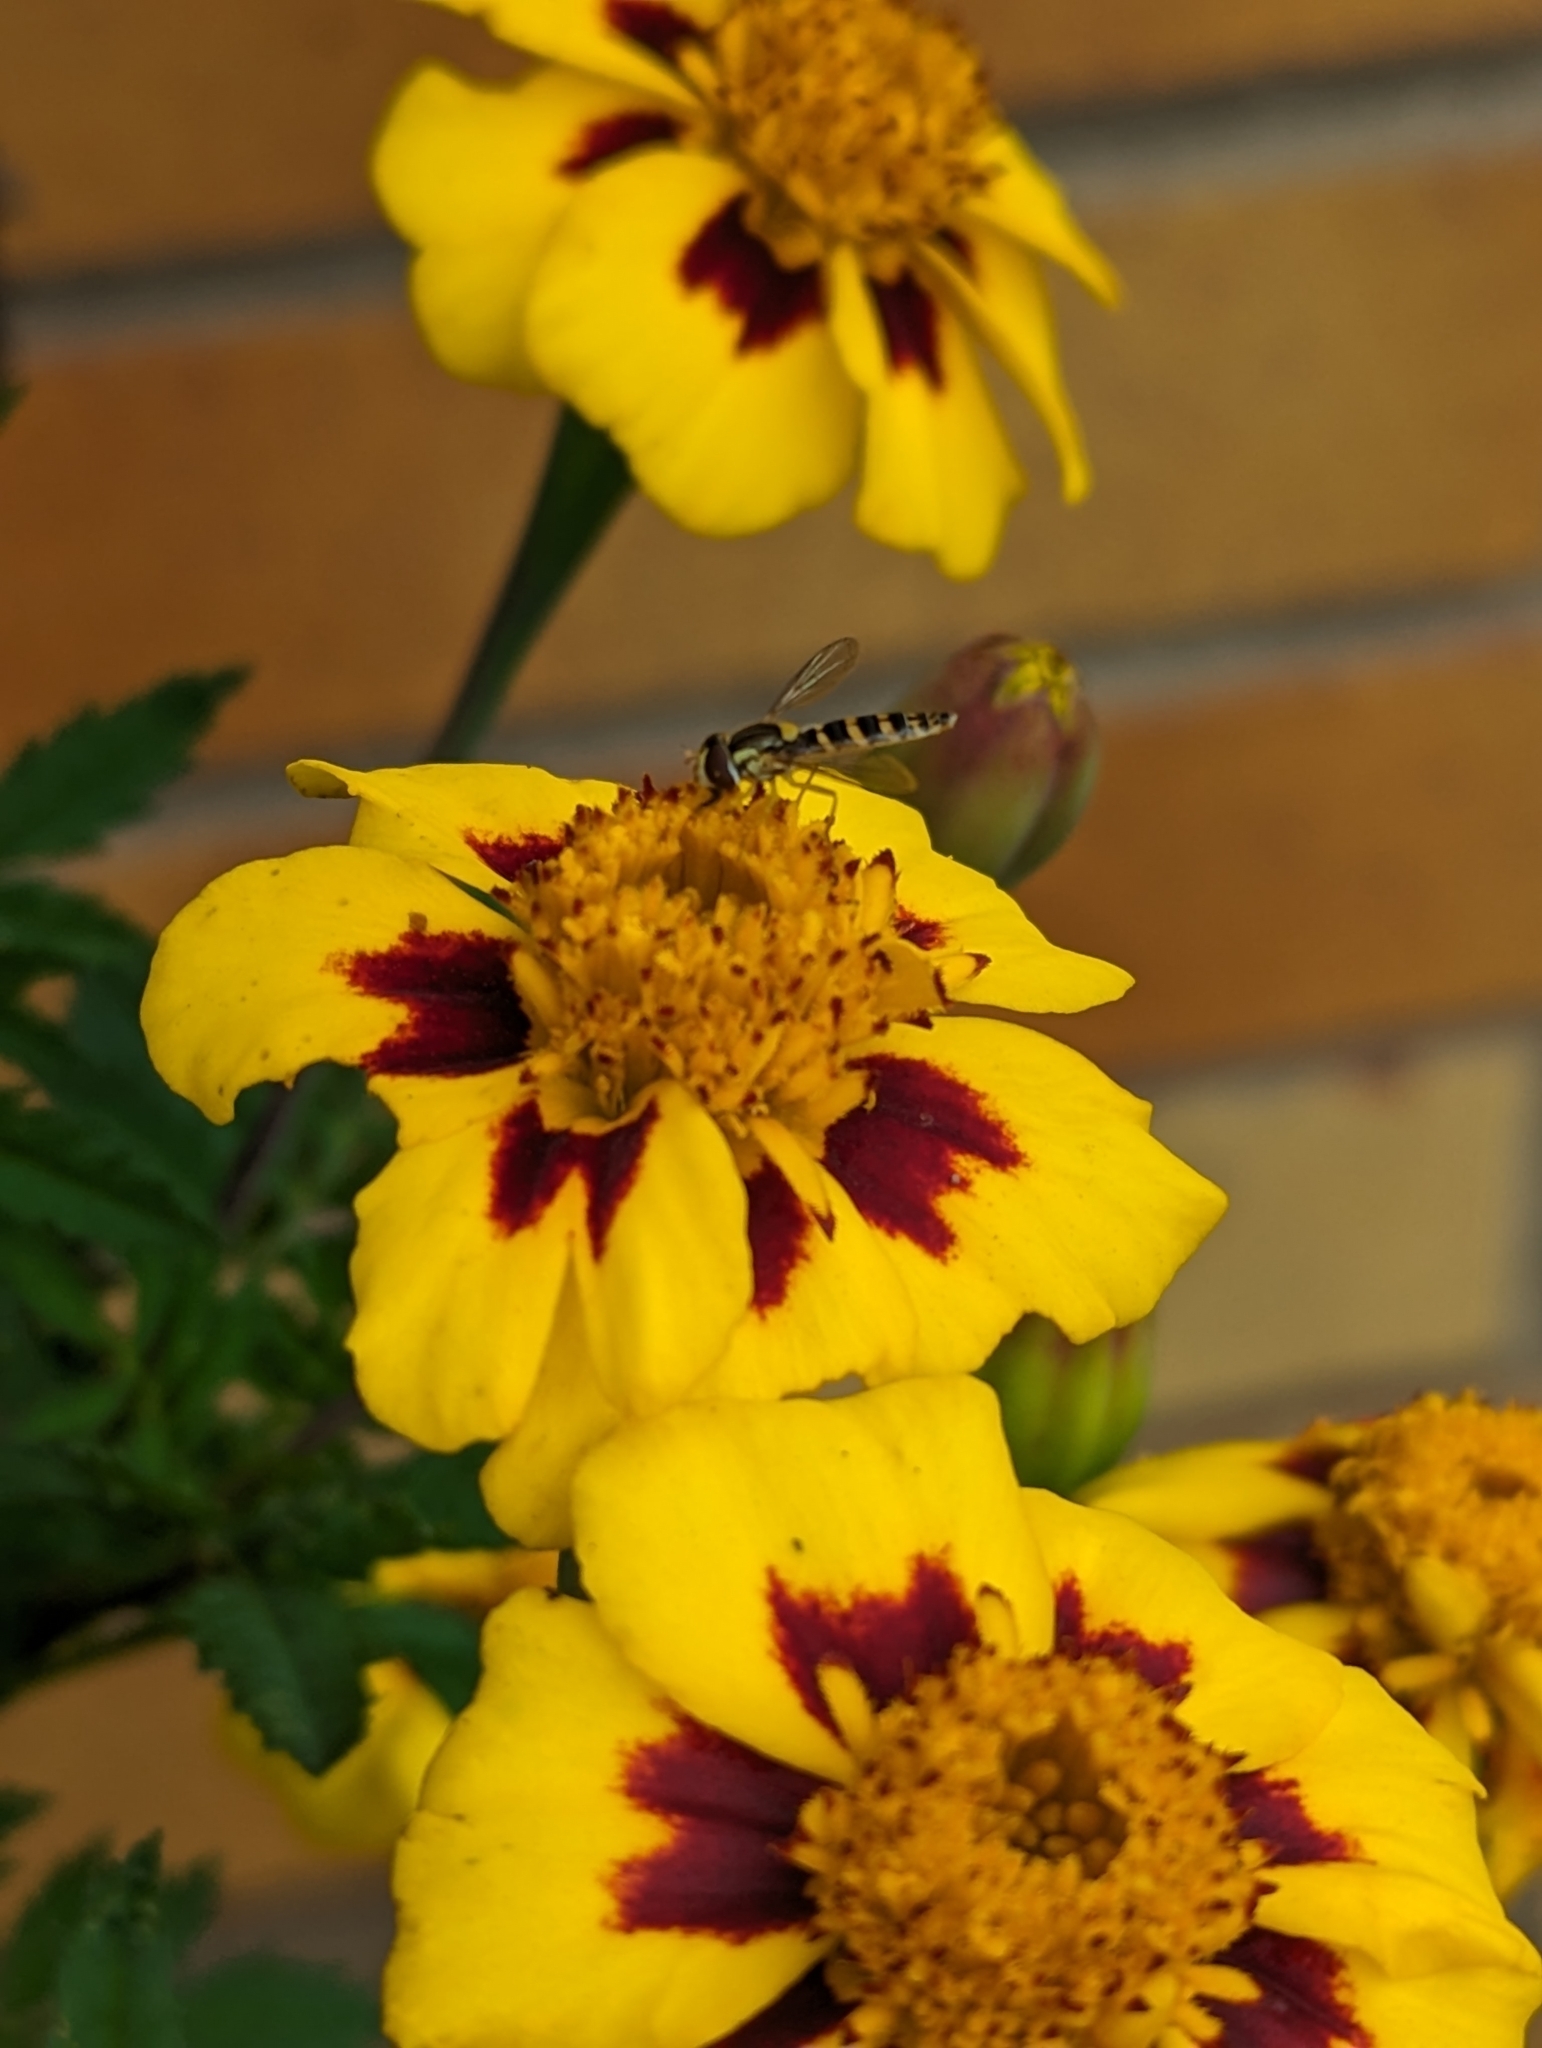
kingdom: Animalia
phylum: Arthropoda
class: Insecta
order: Diptera
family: Syrphidae
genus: Sphaerophoria
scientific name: Sphaerophoria
